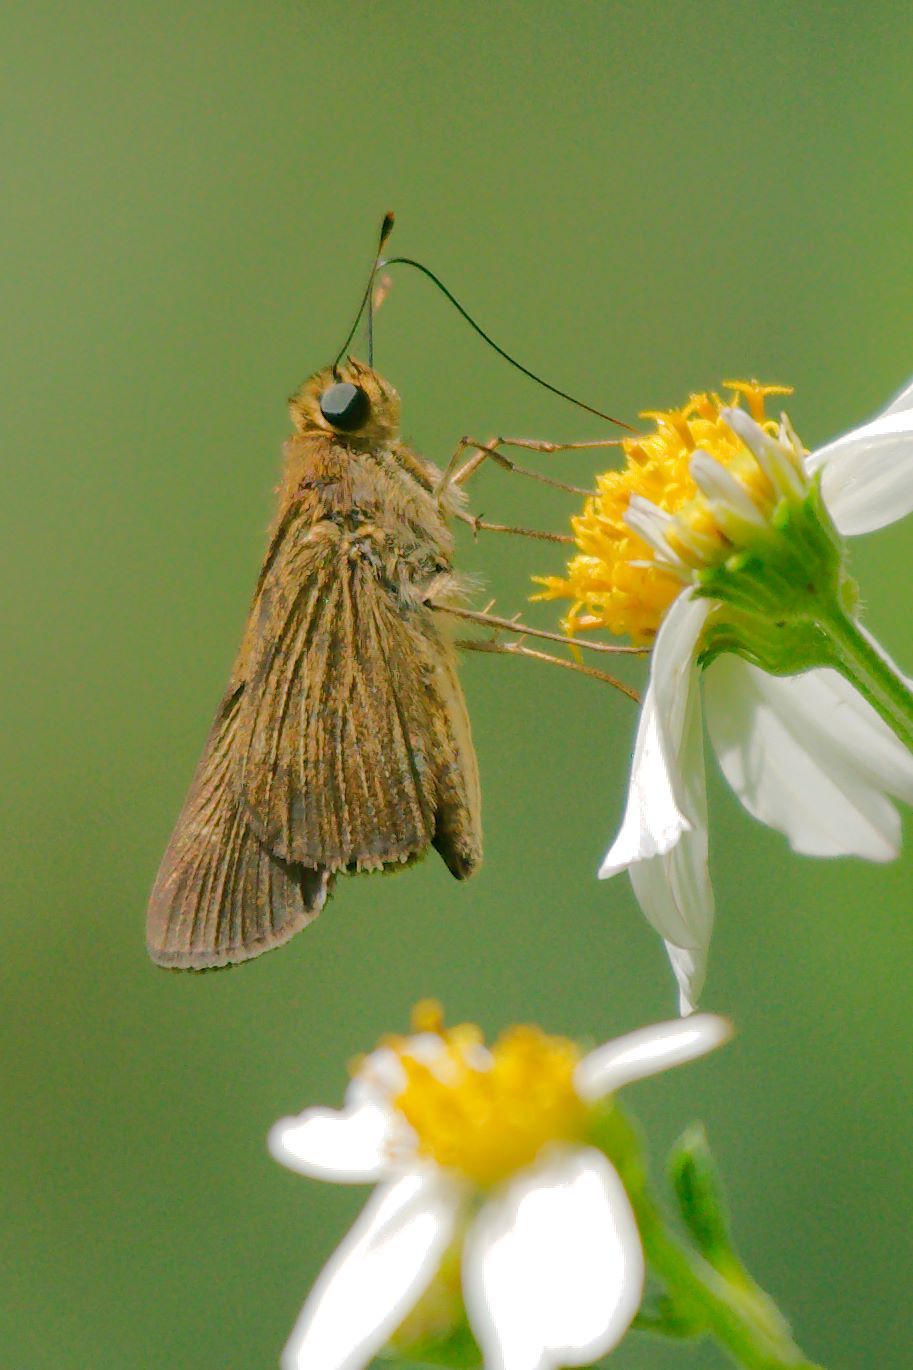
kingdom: Animalia
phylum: Arthropoda
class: Insecta
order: Lepidoptera
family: Hesperiidae
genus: Panoquina
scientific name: Panoquina ocola
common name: Ocola skipper
